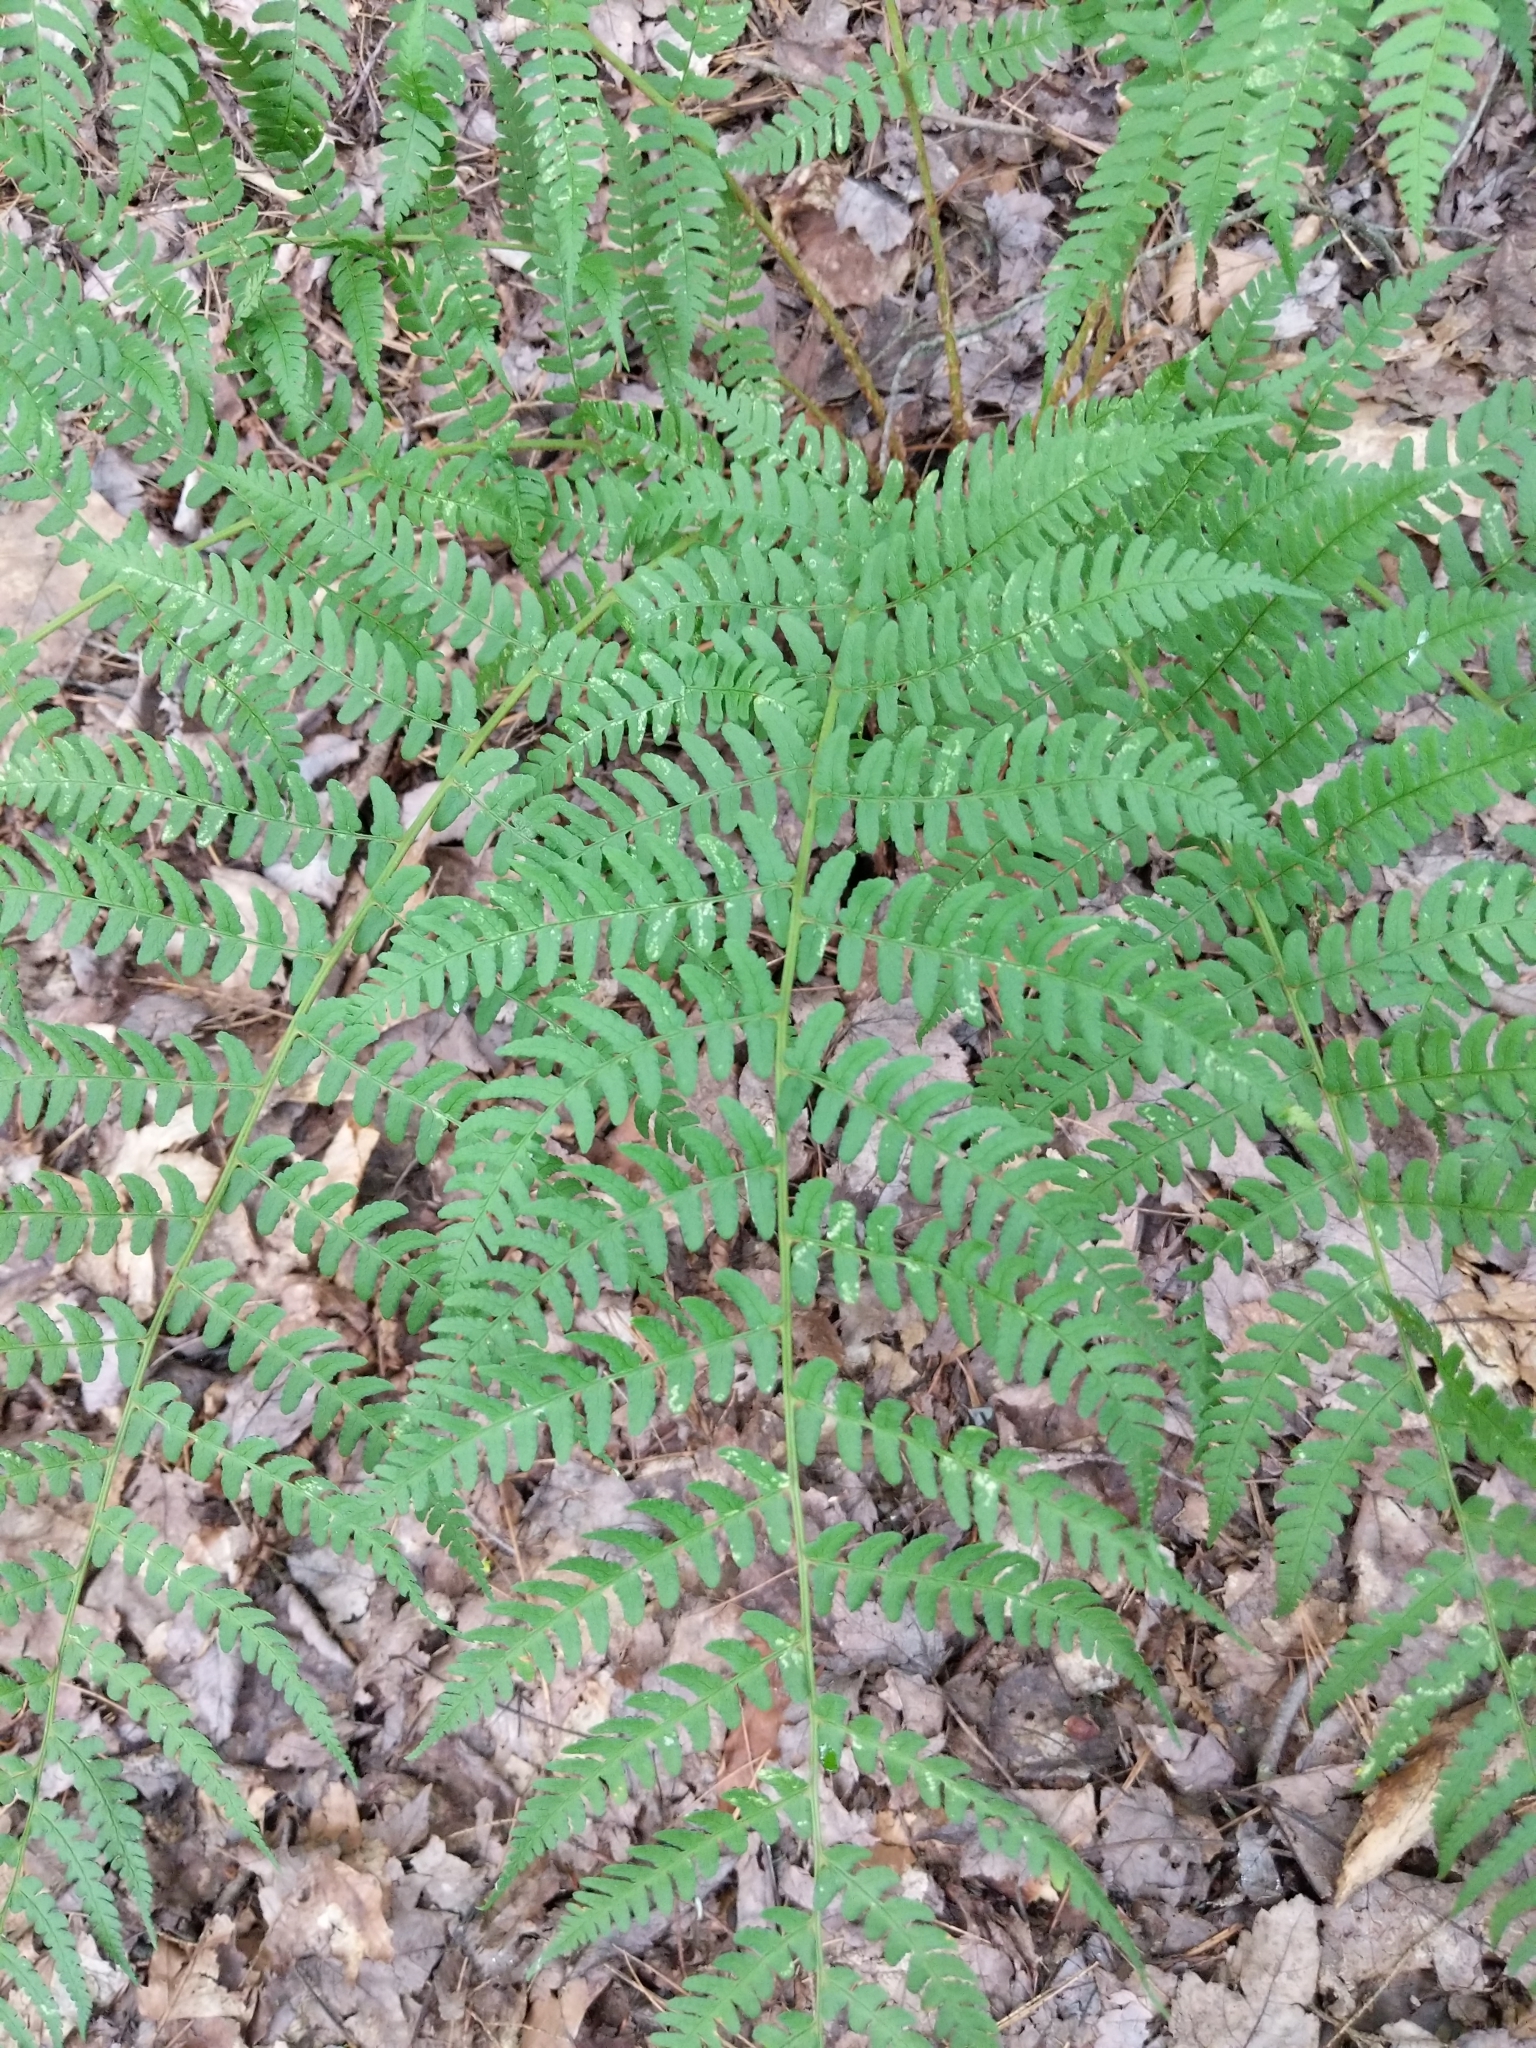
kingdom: Plantae
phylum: Tracheophyta
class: Polypodiopsida
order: Polypodiales
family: Dryopteridaceae
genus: Dryopteris
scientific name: Dryopteris marginalis
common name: Marginal wood fern
